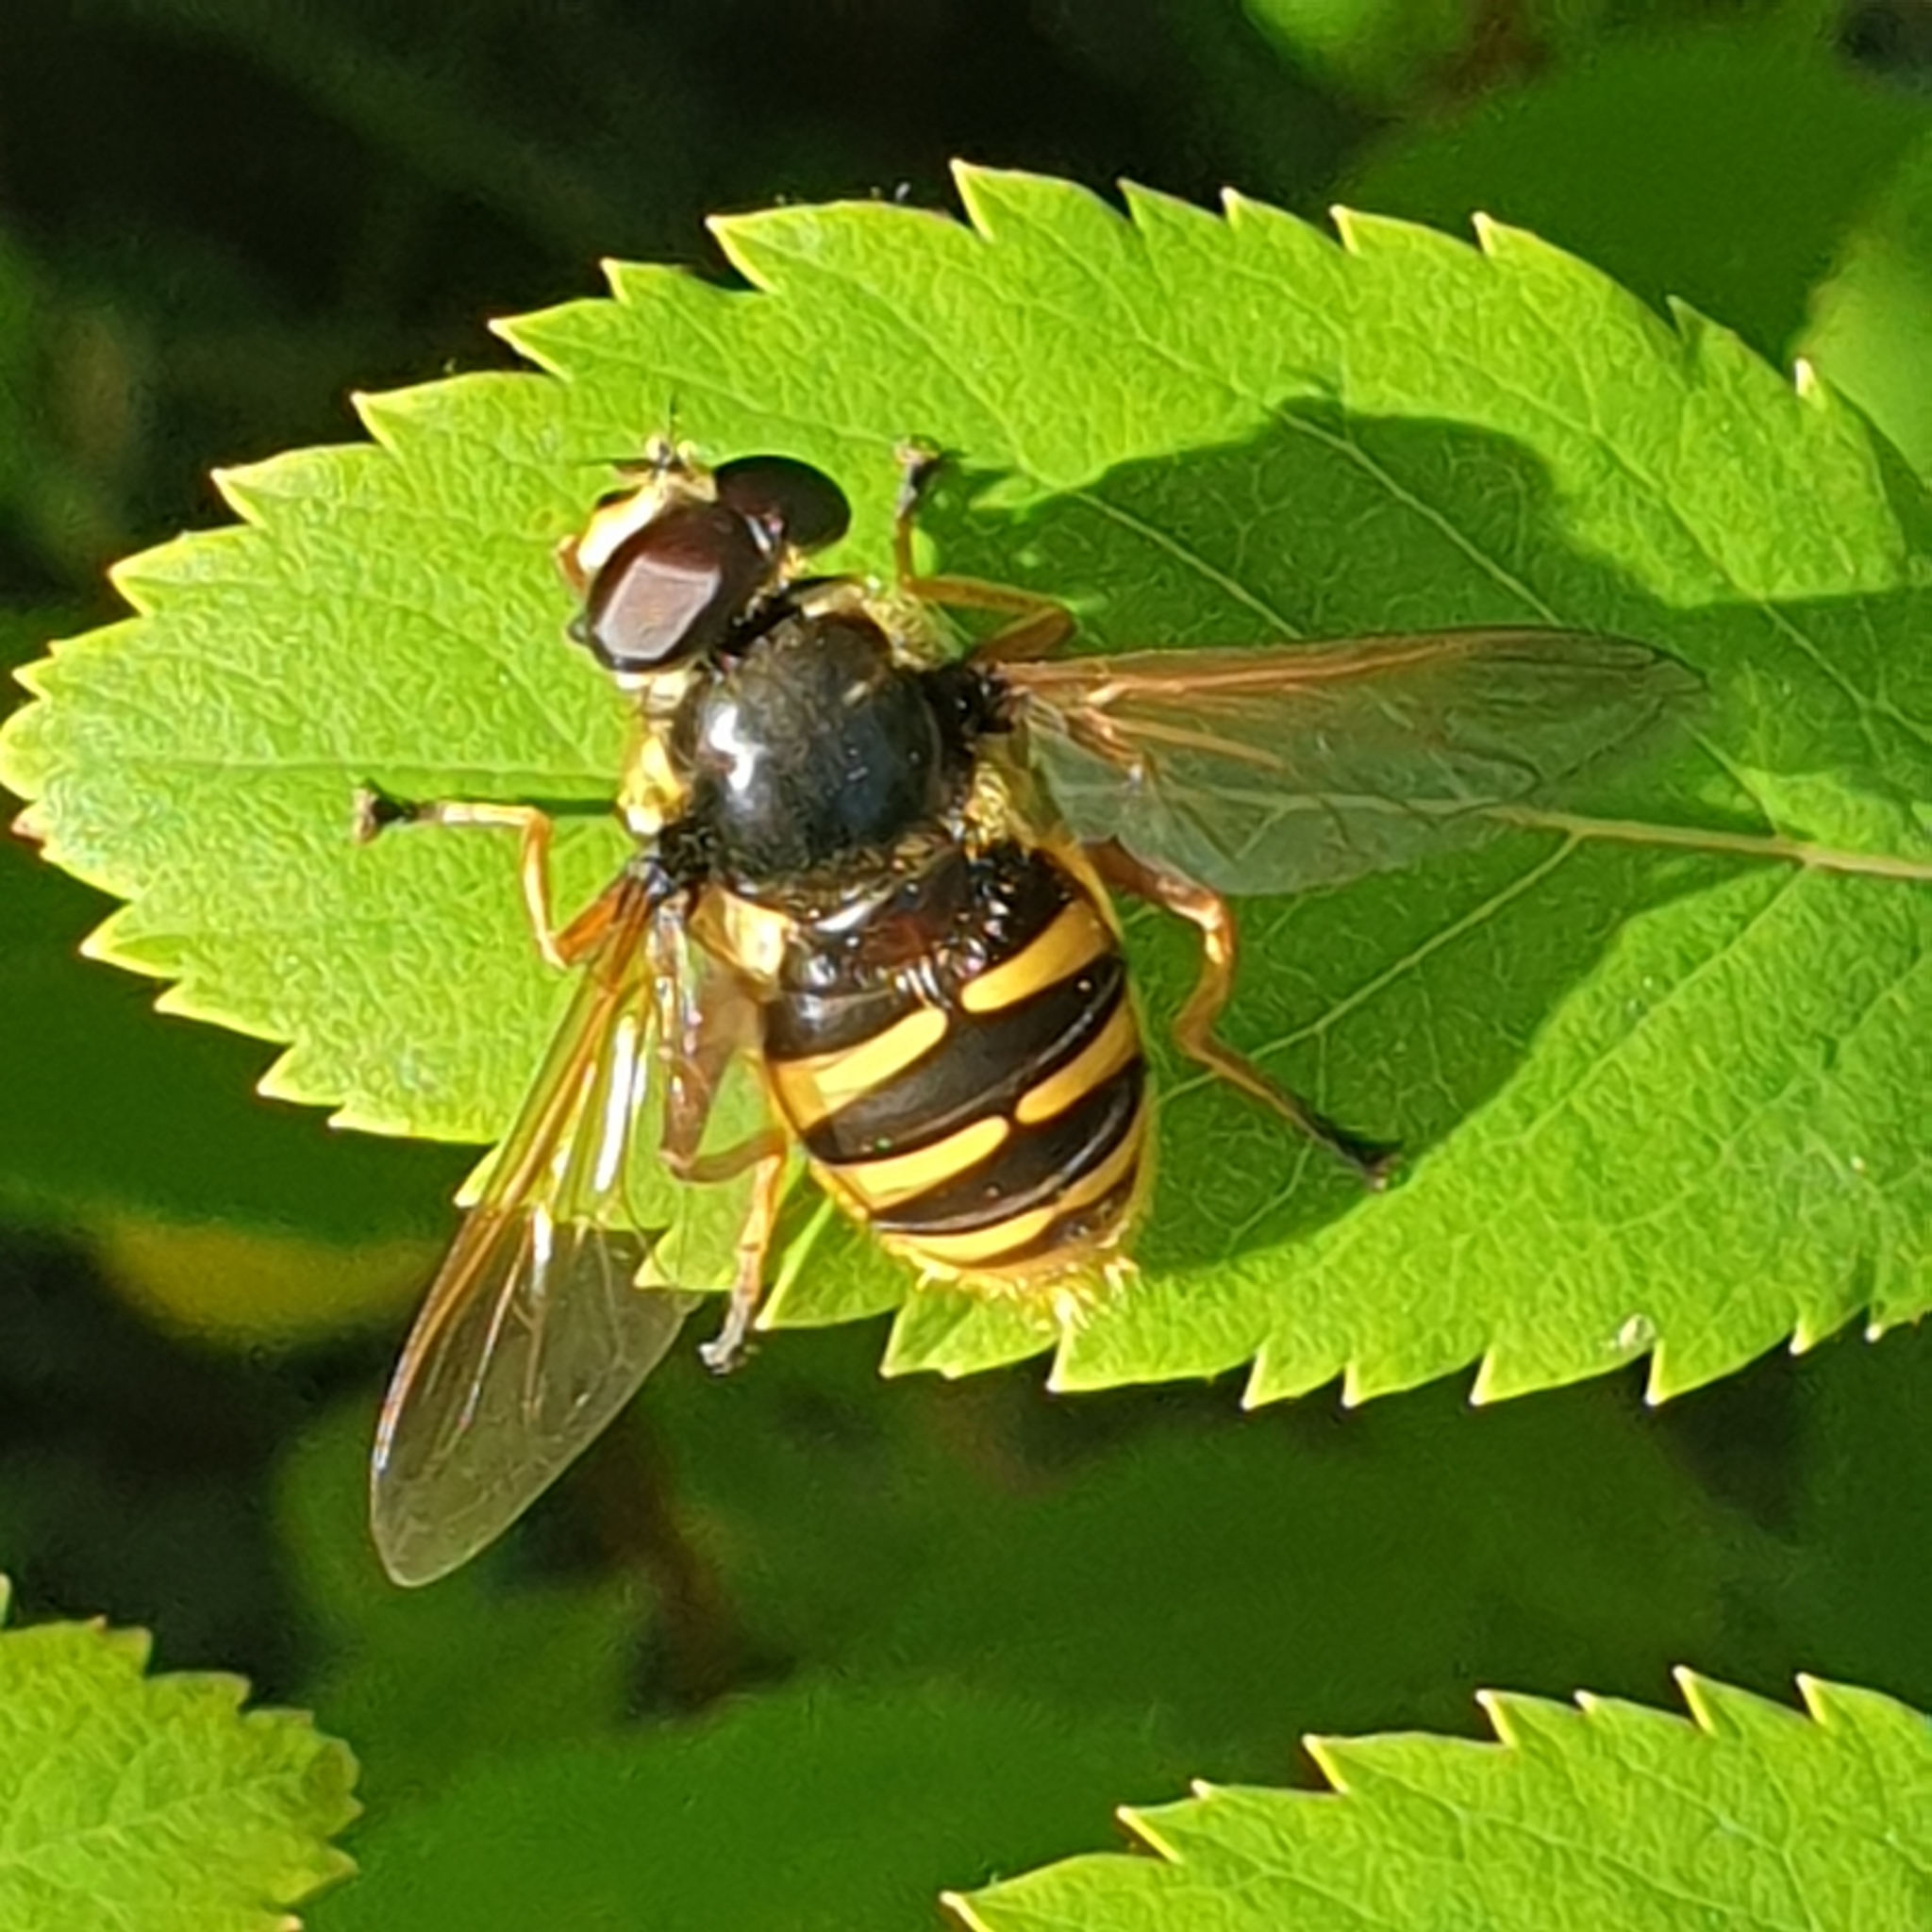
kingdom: Animalia
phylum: Arthropoda
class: Insecta
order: Diptera
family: Syrphidae
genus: Sericomyia
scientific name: Sericomyia silentis
